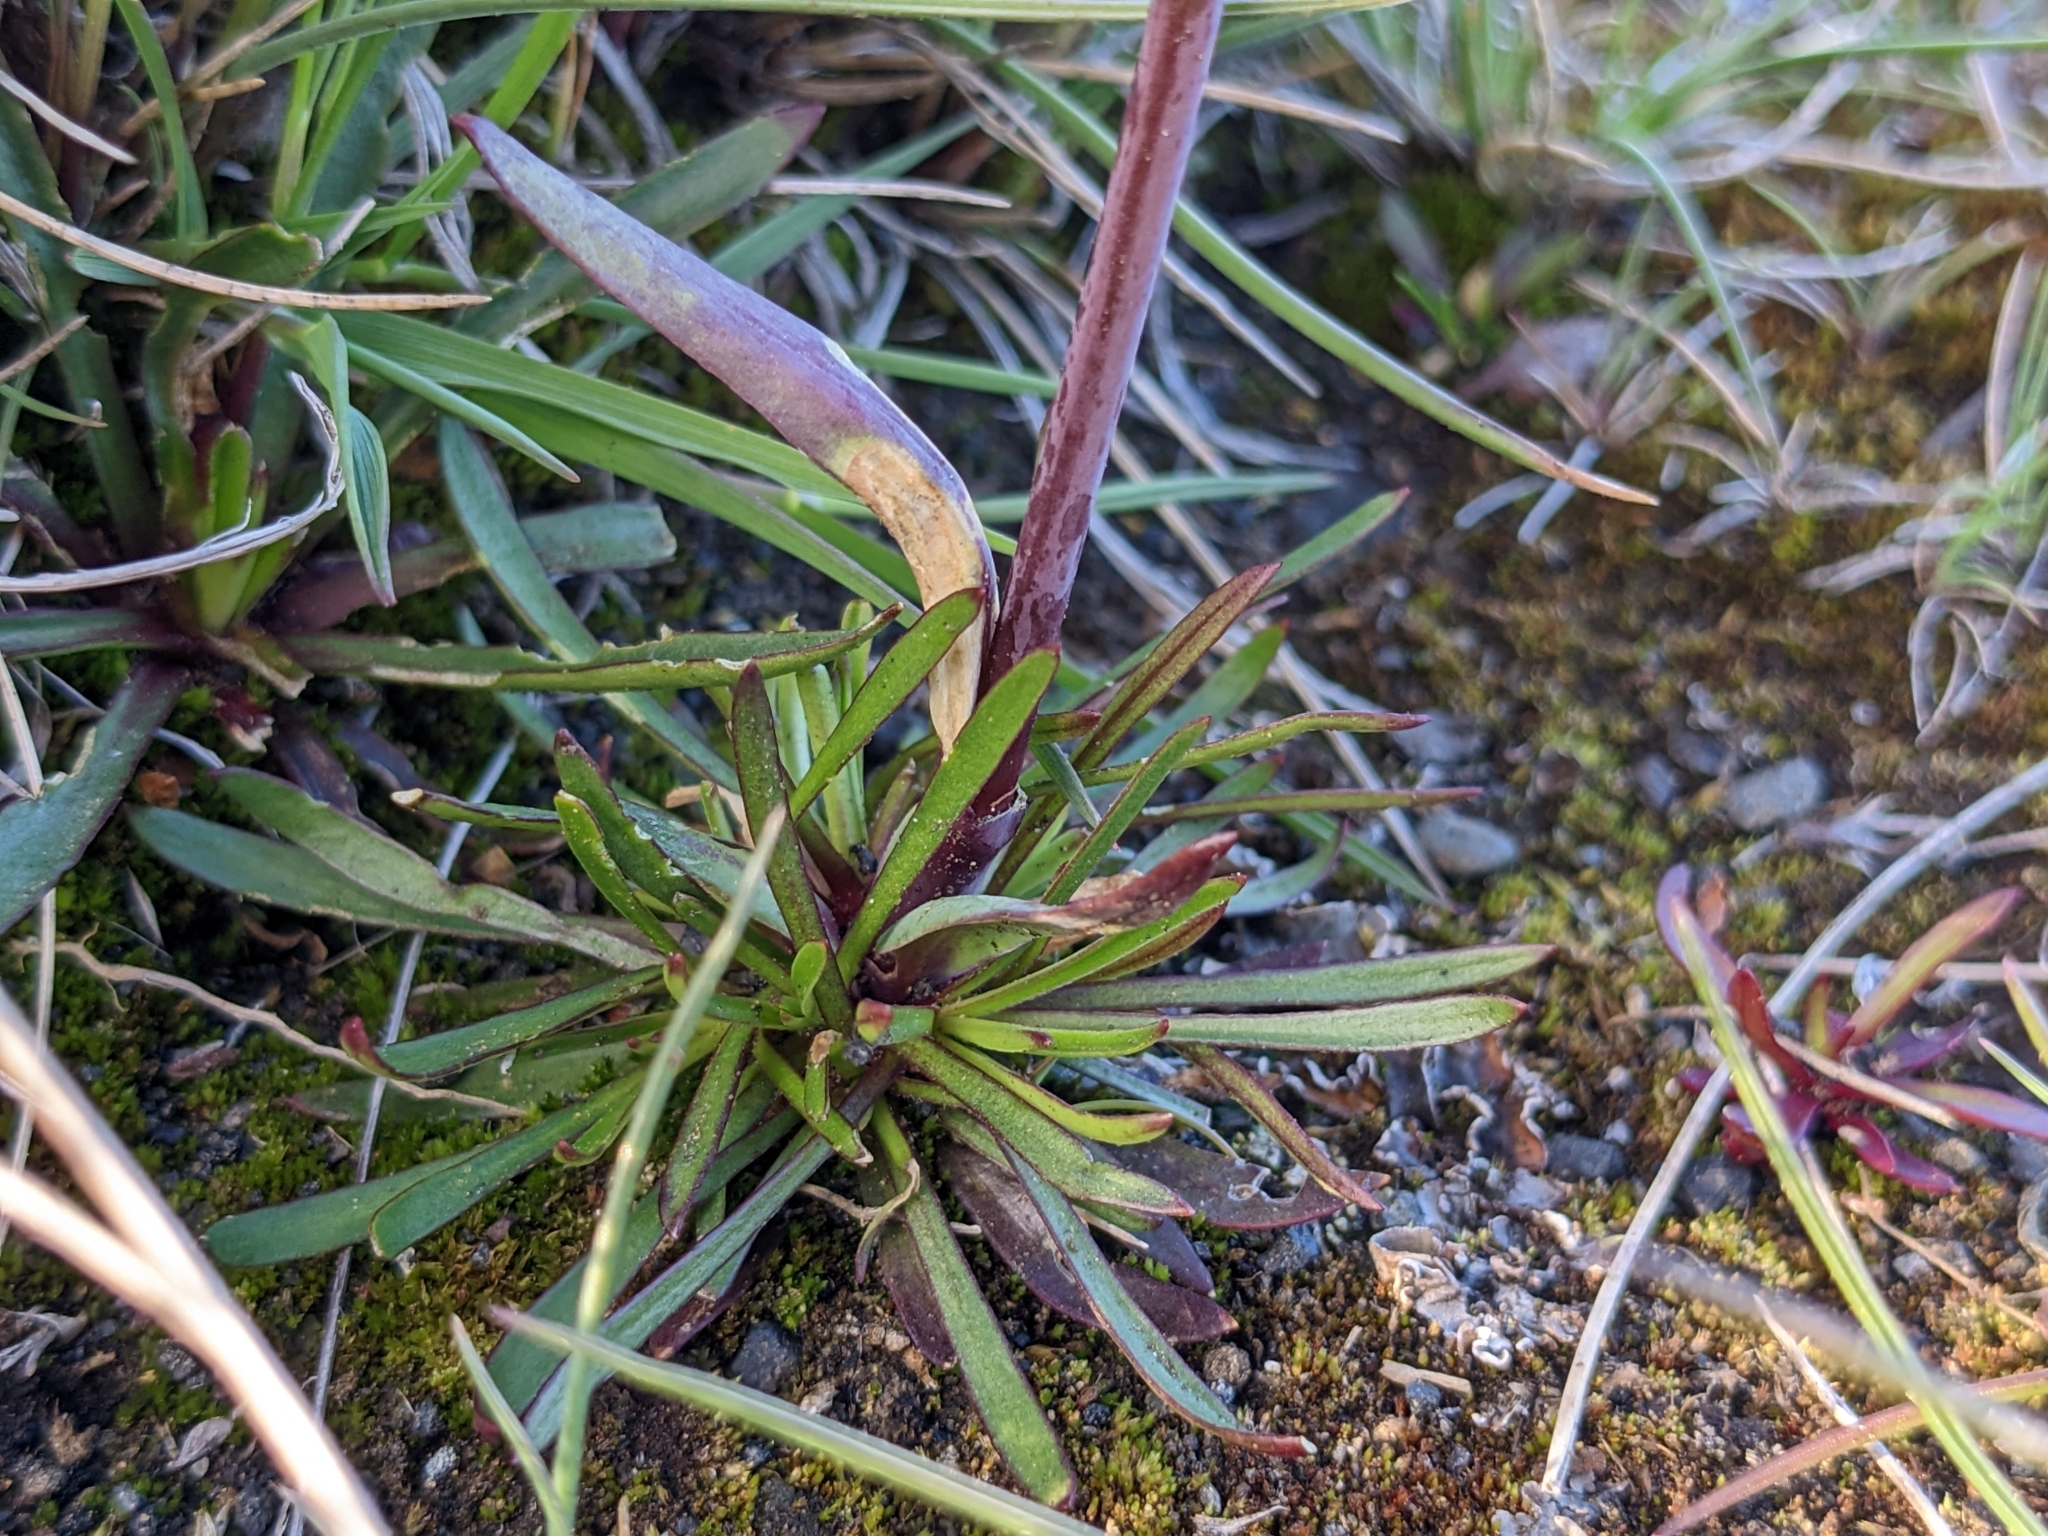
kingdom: Plantae
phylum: Tracheophyta
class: Magnoliopsida
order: Caryophyllales
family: Caryophyllaceae
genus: Viscaria
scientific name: Viscaria alpina
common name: Alpine campion
